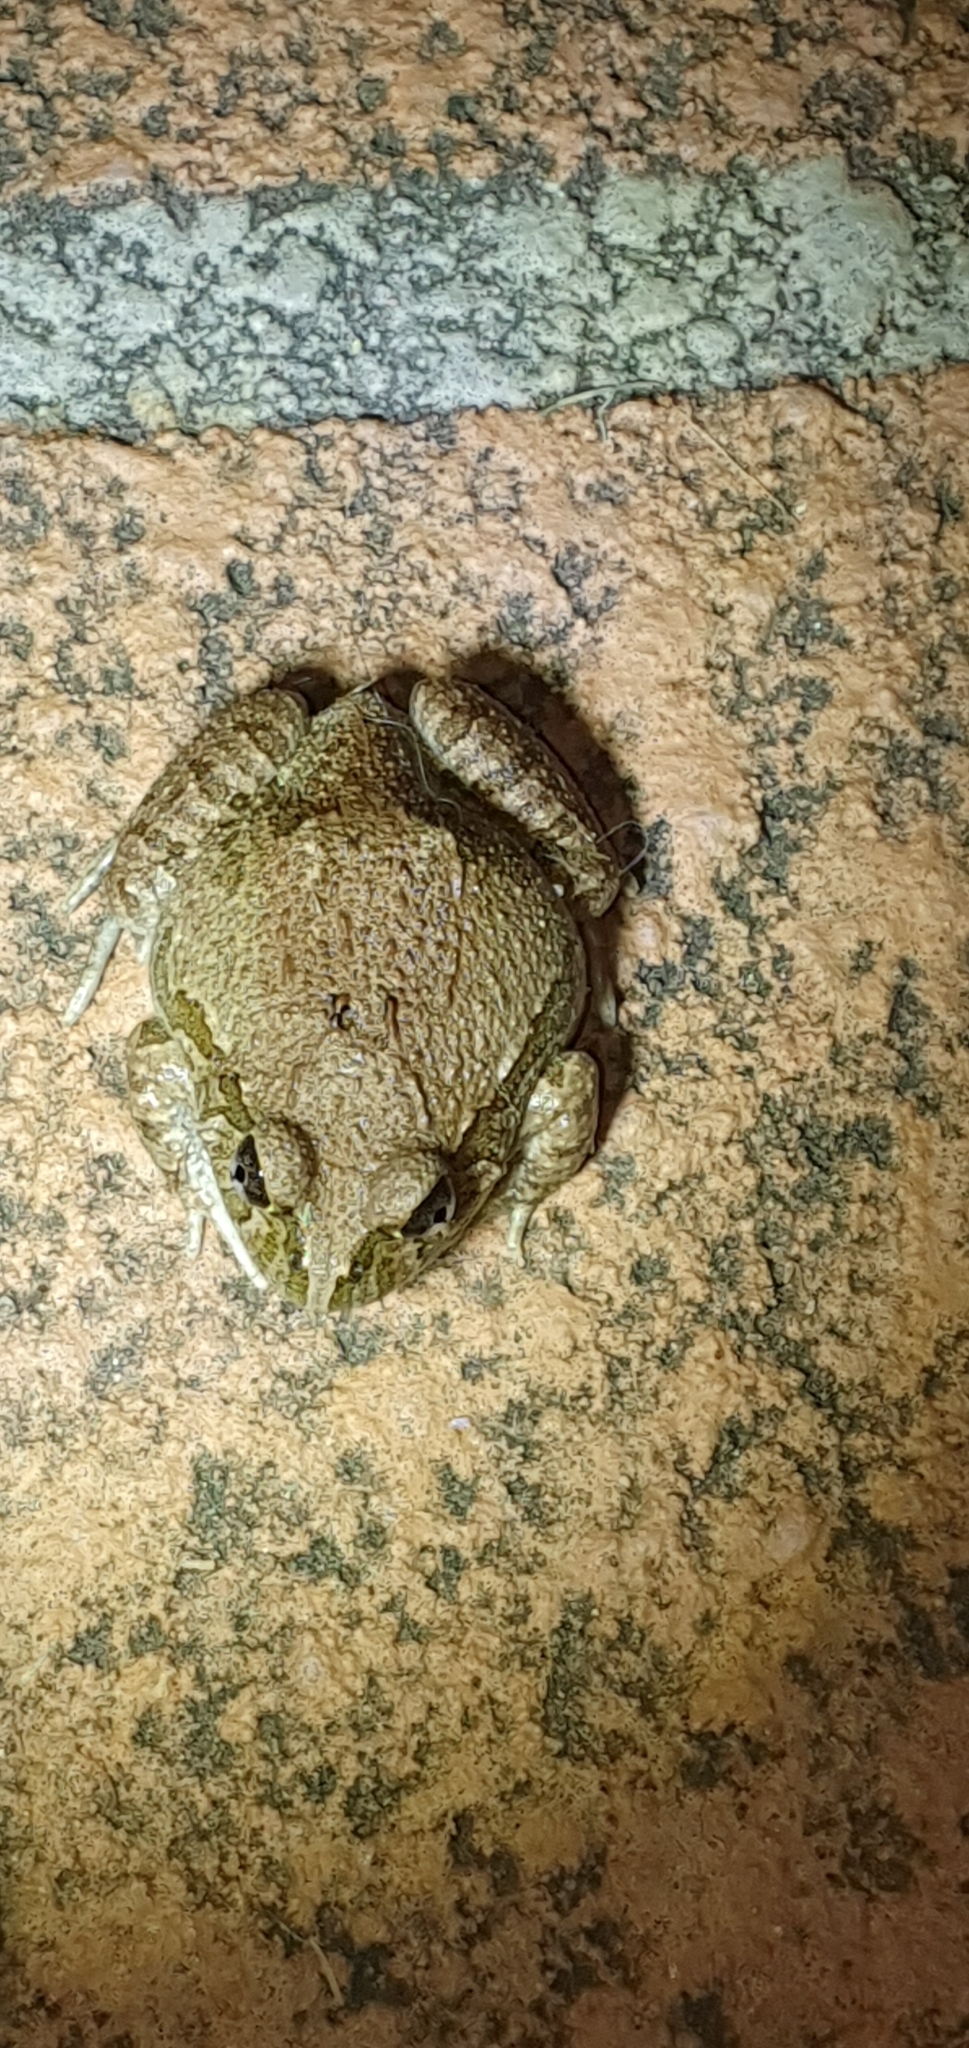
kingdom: Animalia
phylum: Chordata
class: Amphibia
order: Anura
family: Limnodynastidae
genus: Platyplectrum
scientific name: Platyplectrum ornatum
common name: Ornate burrowing frog
